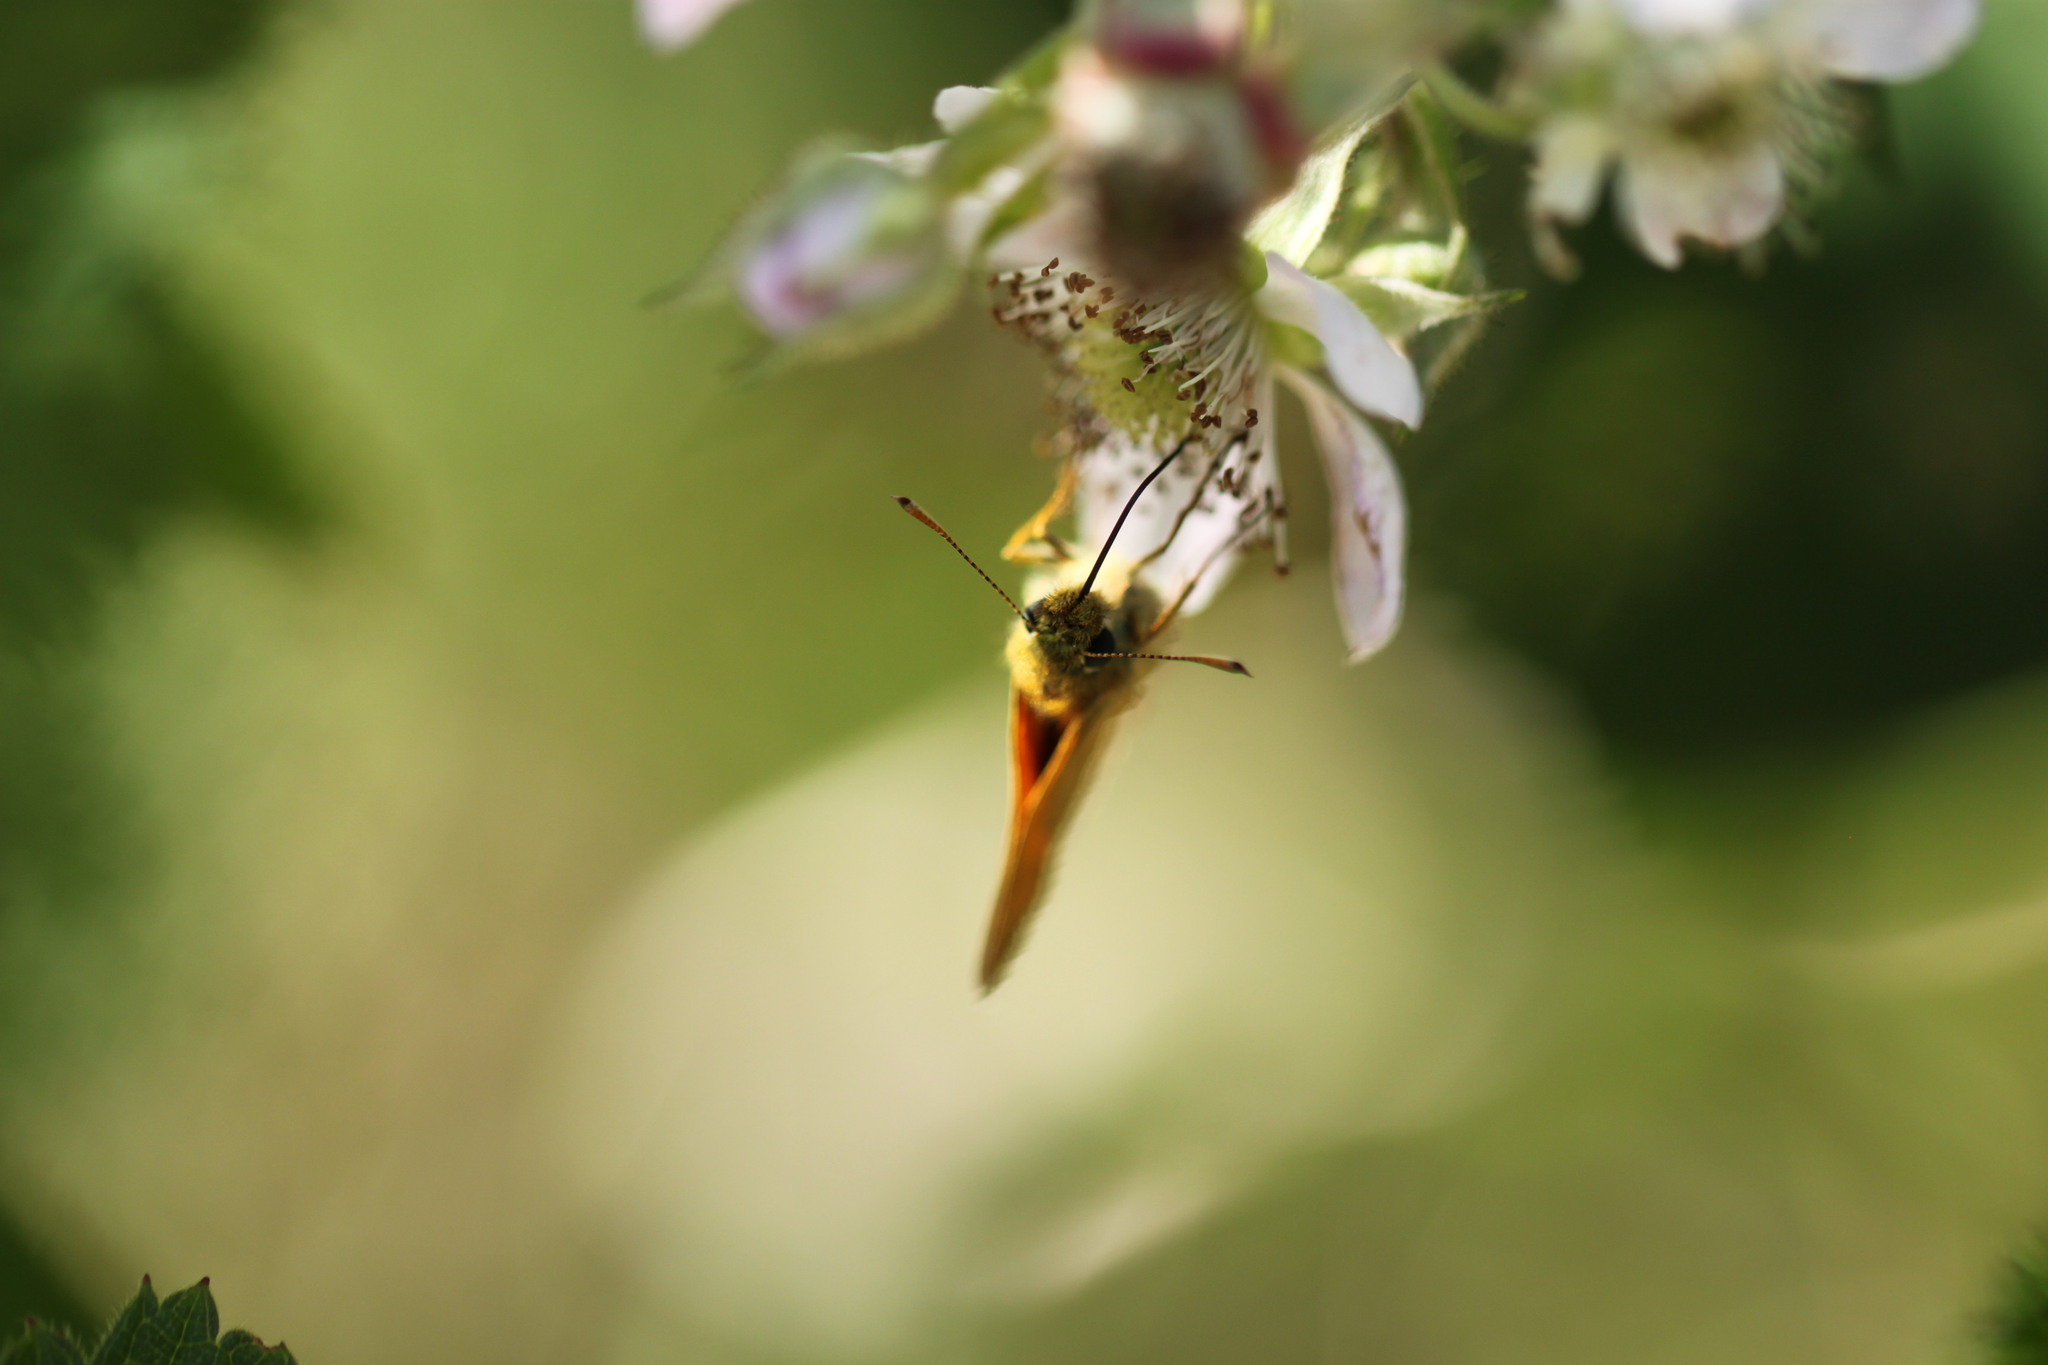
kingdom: Plantae
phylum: Tracheophyta
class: Magnoliopsida
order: Lamiales
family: Plantaginaceae
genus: Littorella
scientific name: Littorella uniflora
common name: Shoreweed
